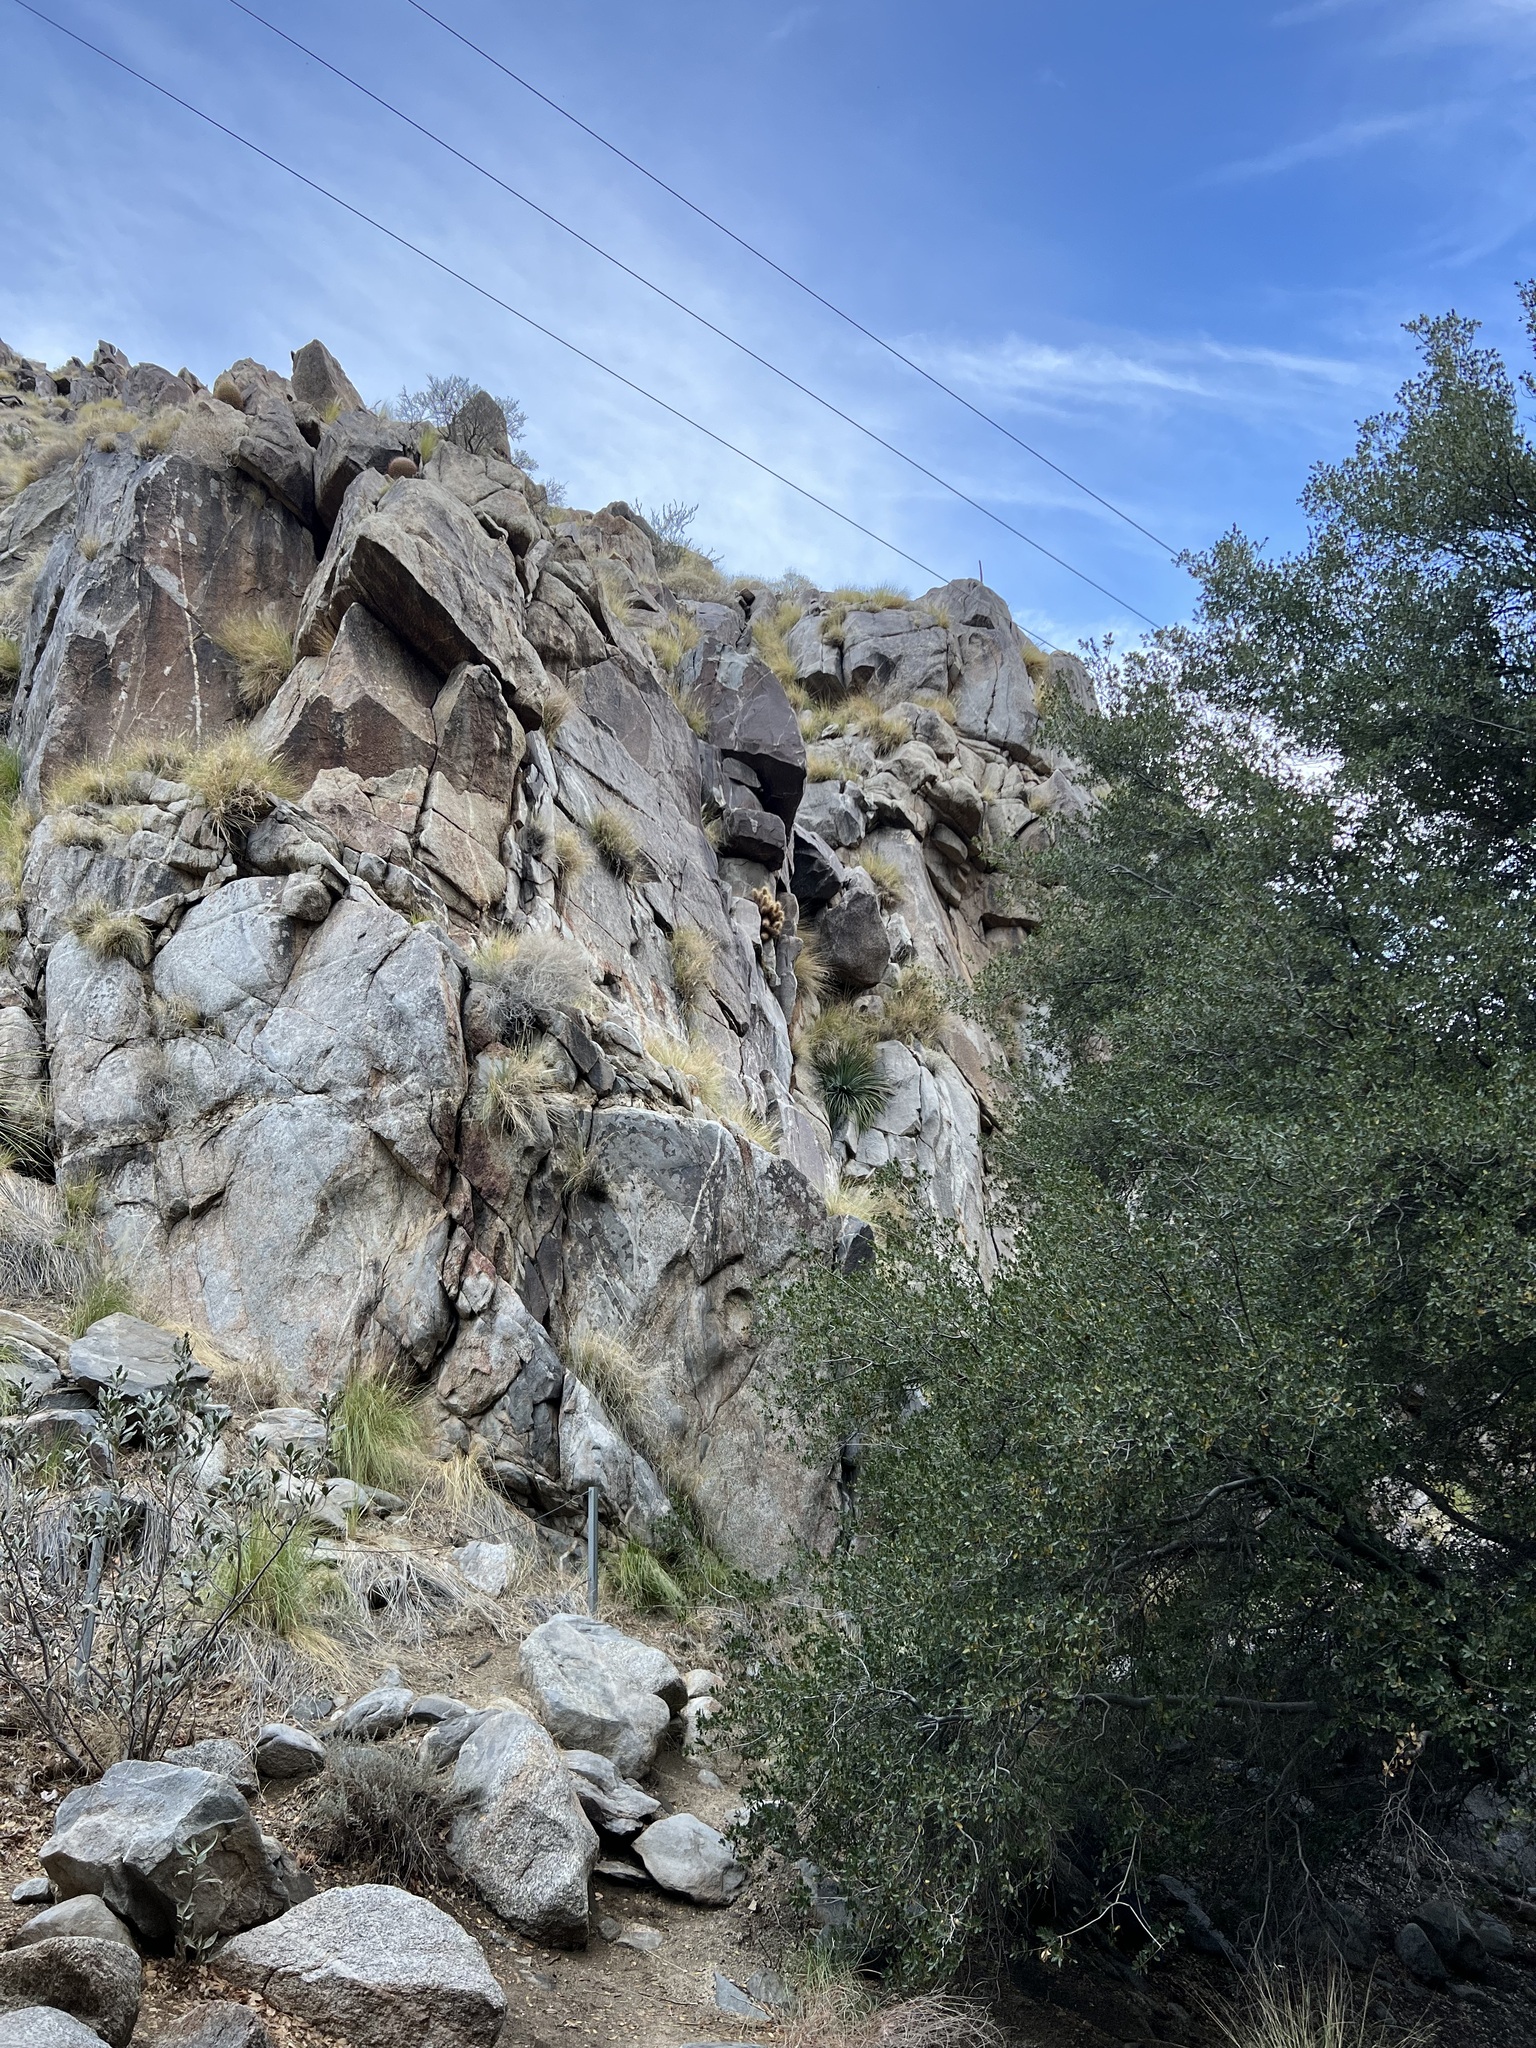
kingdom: Plantae
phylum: Tracheophyta
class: Magnoliopsida
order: Caryophyllales
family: Cactaceae
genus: Echinocereus
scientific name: Echinocereus engelmannii
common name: Engelmann's hedgehog cactus
